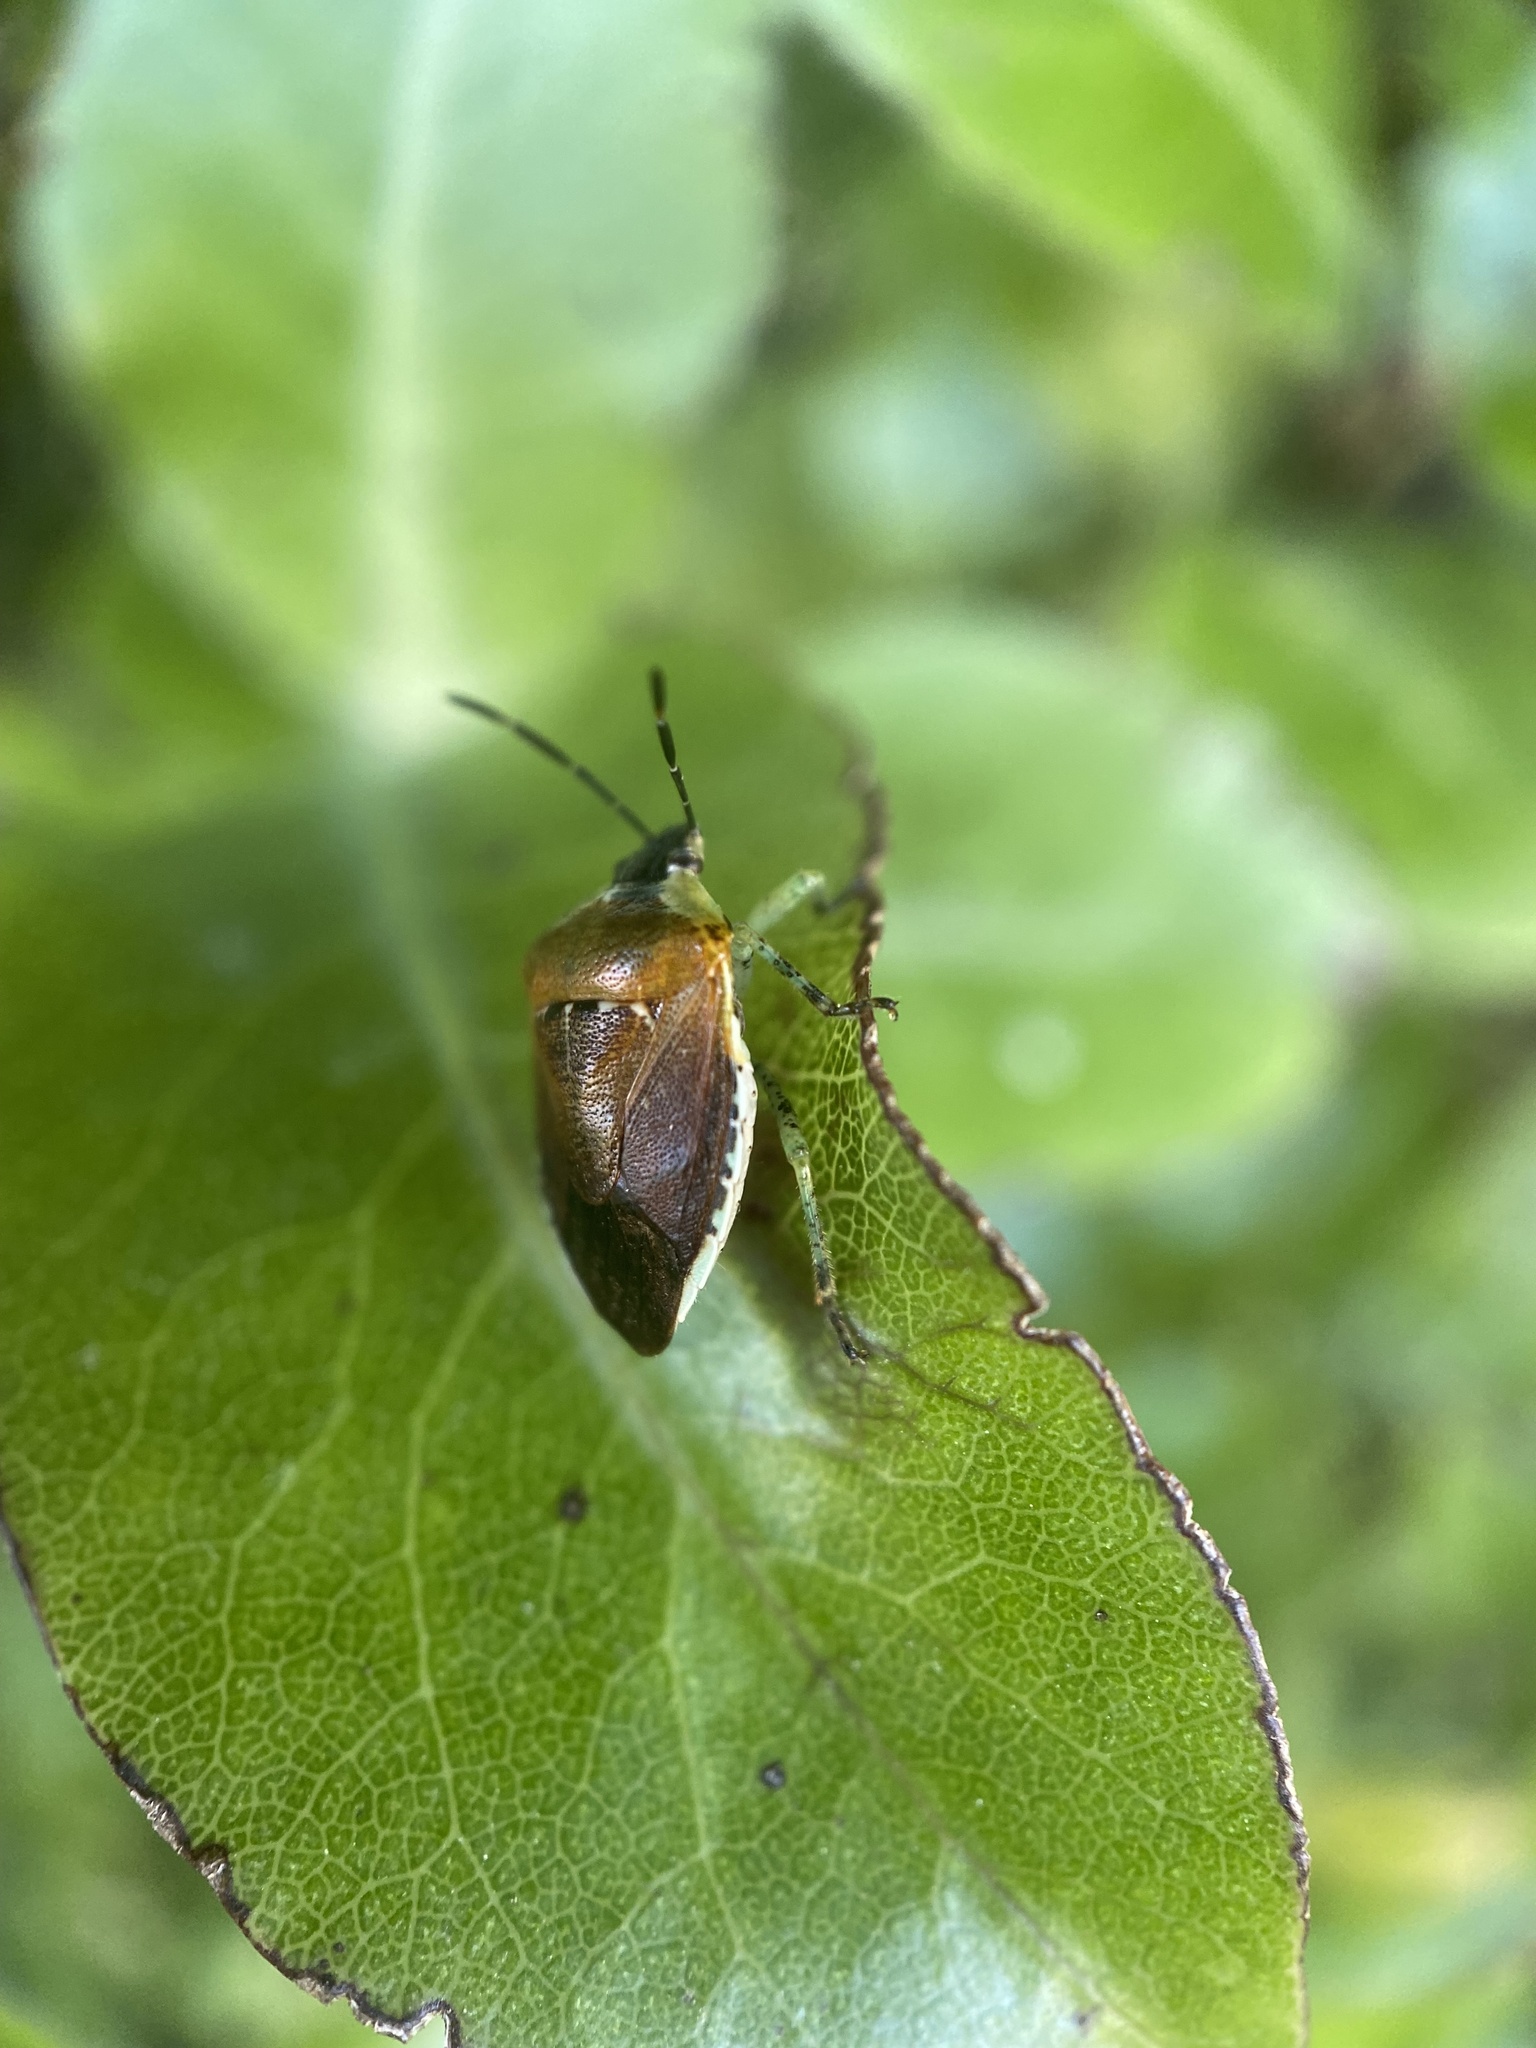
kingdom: Animalia
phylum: Arthropoda
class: Insecta
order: Hemiptera
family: Pentatomidae
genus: Monteithiella
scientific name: Monteithiella
